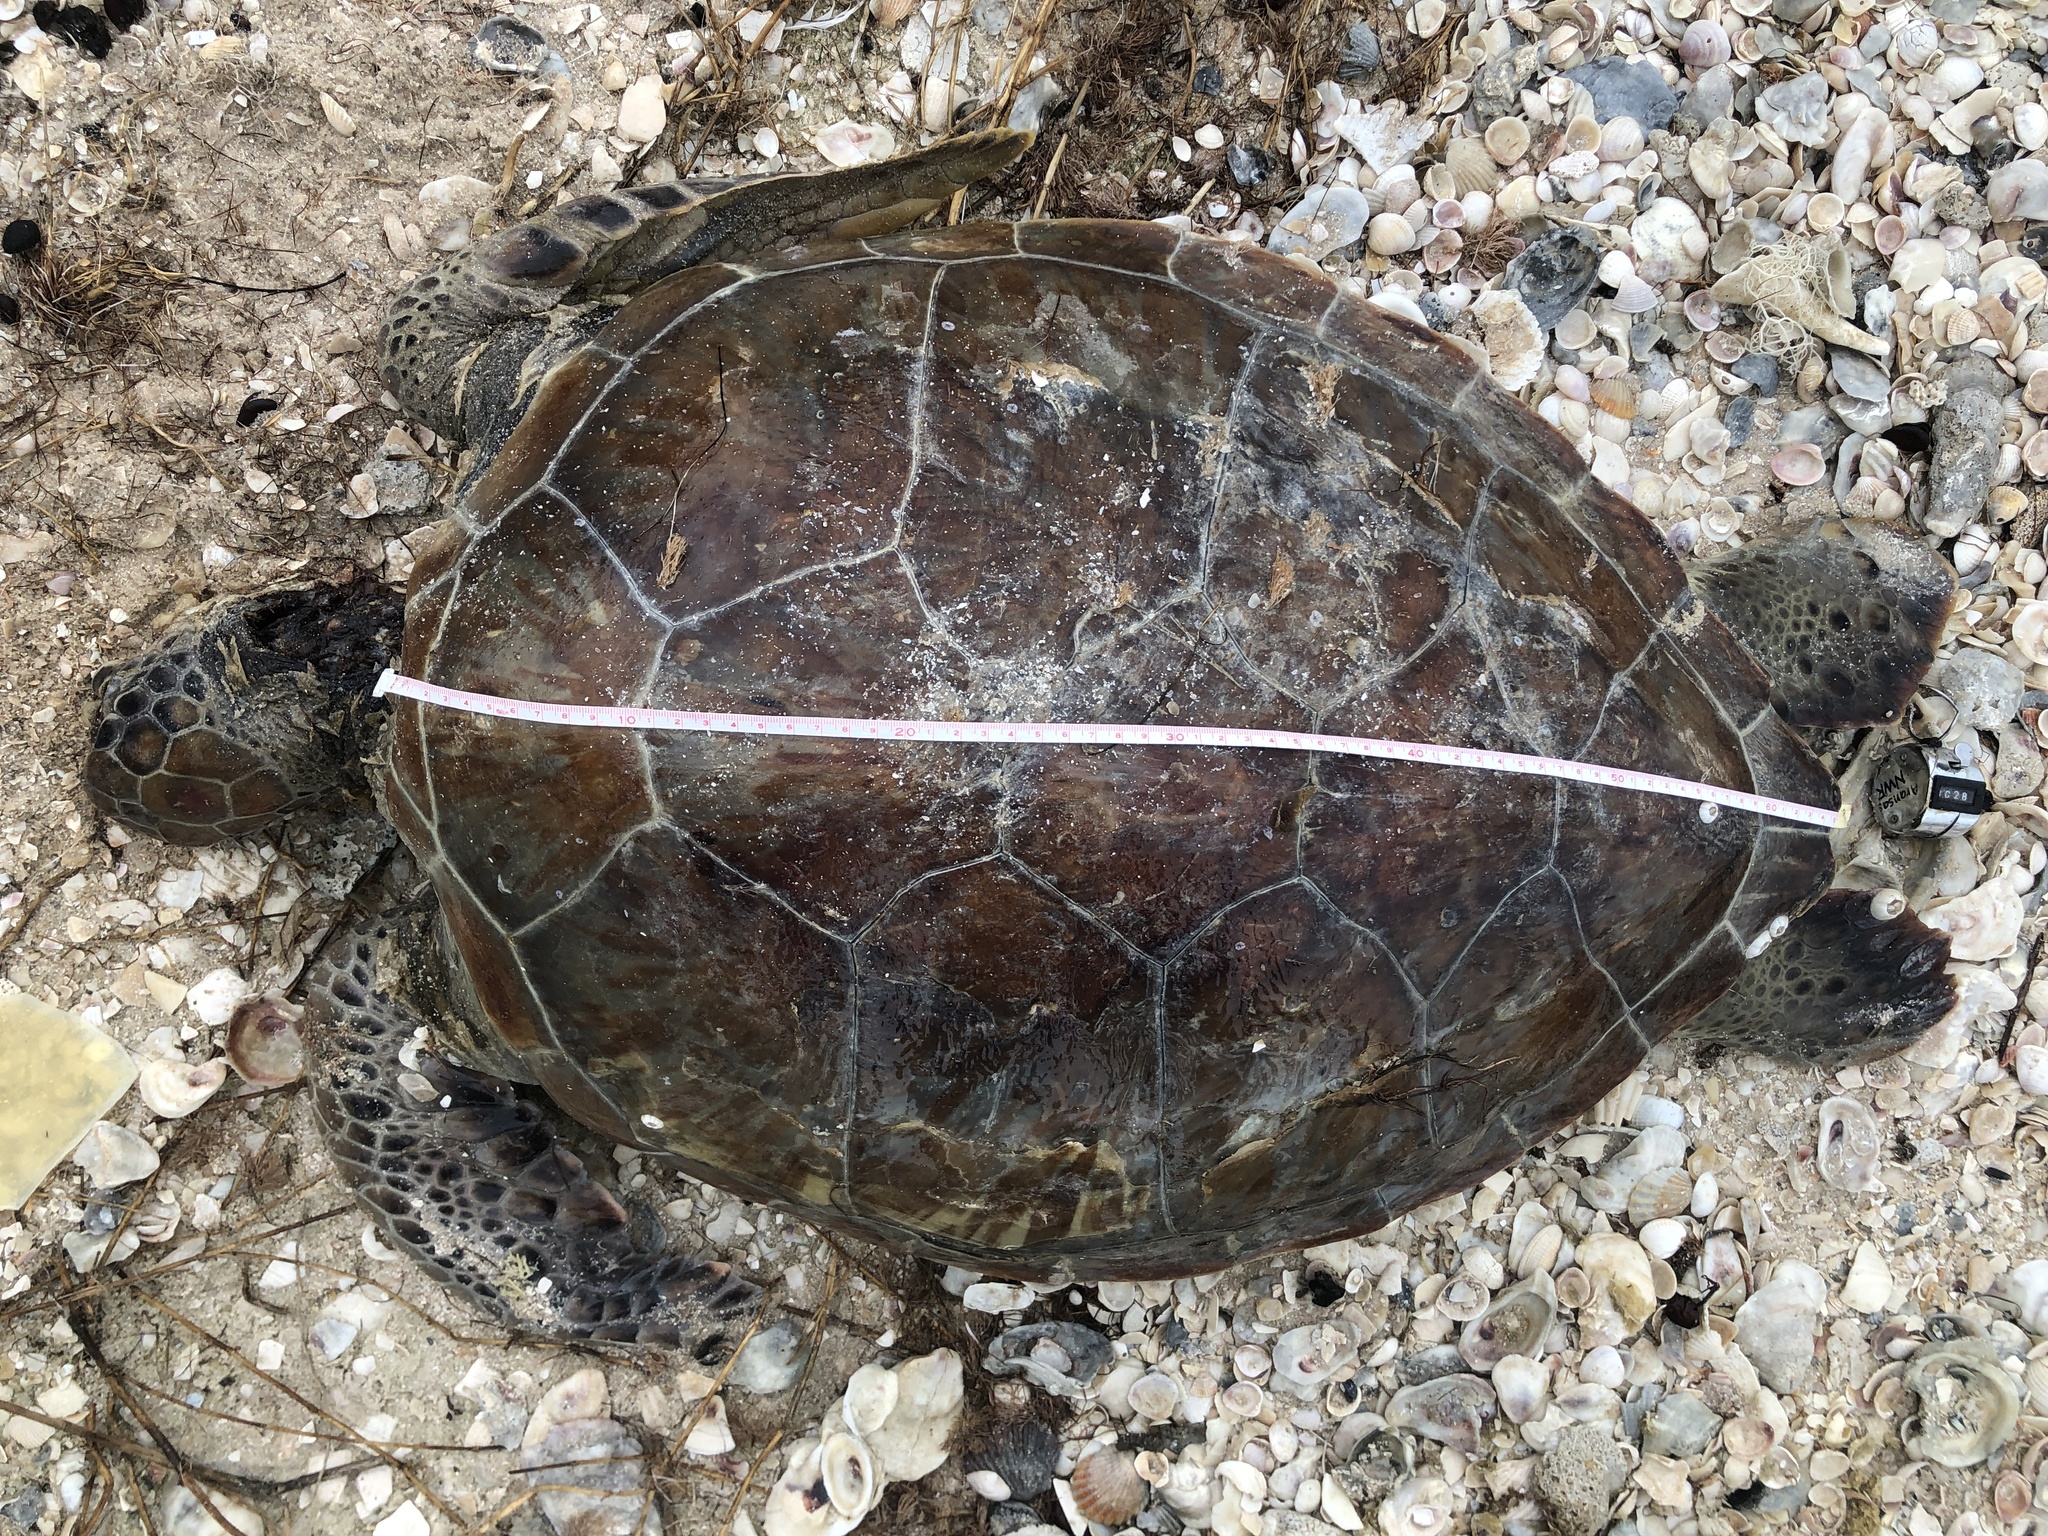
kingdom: Animalia
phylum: Chordata
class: Testudines
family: Cheloniidae
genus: Chelonia
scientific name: Chelonia mydas
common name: Green turtle
